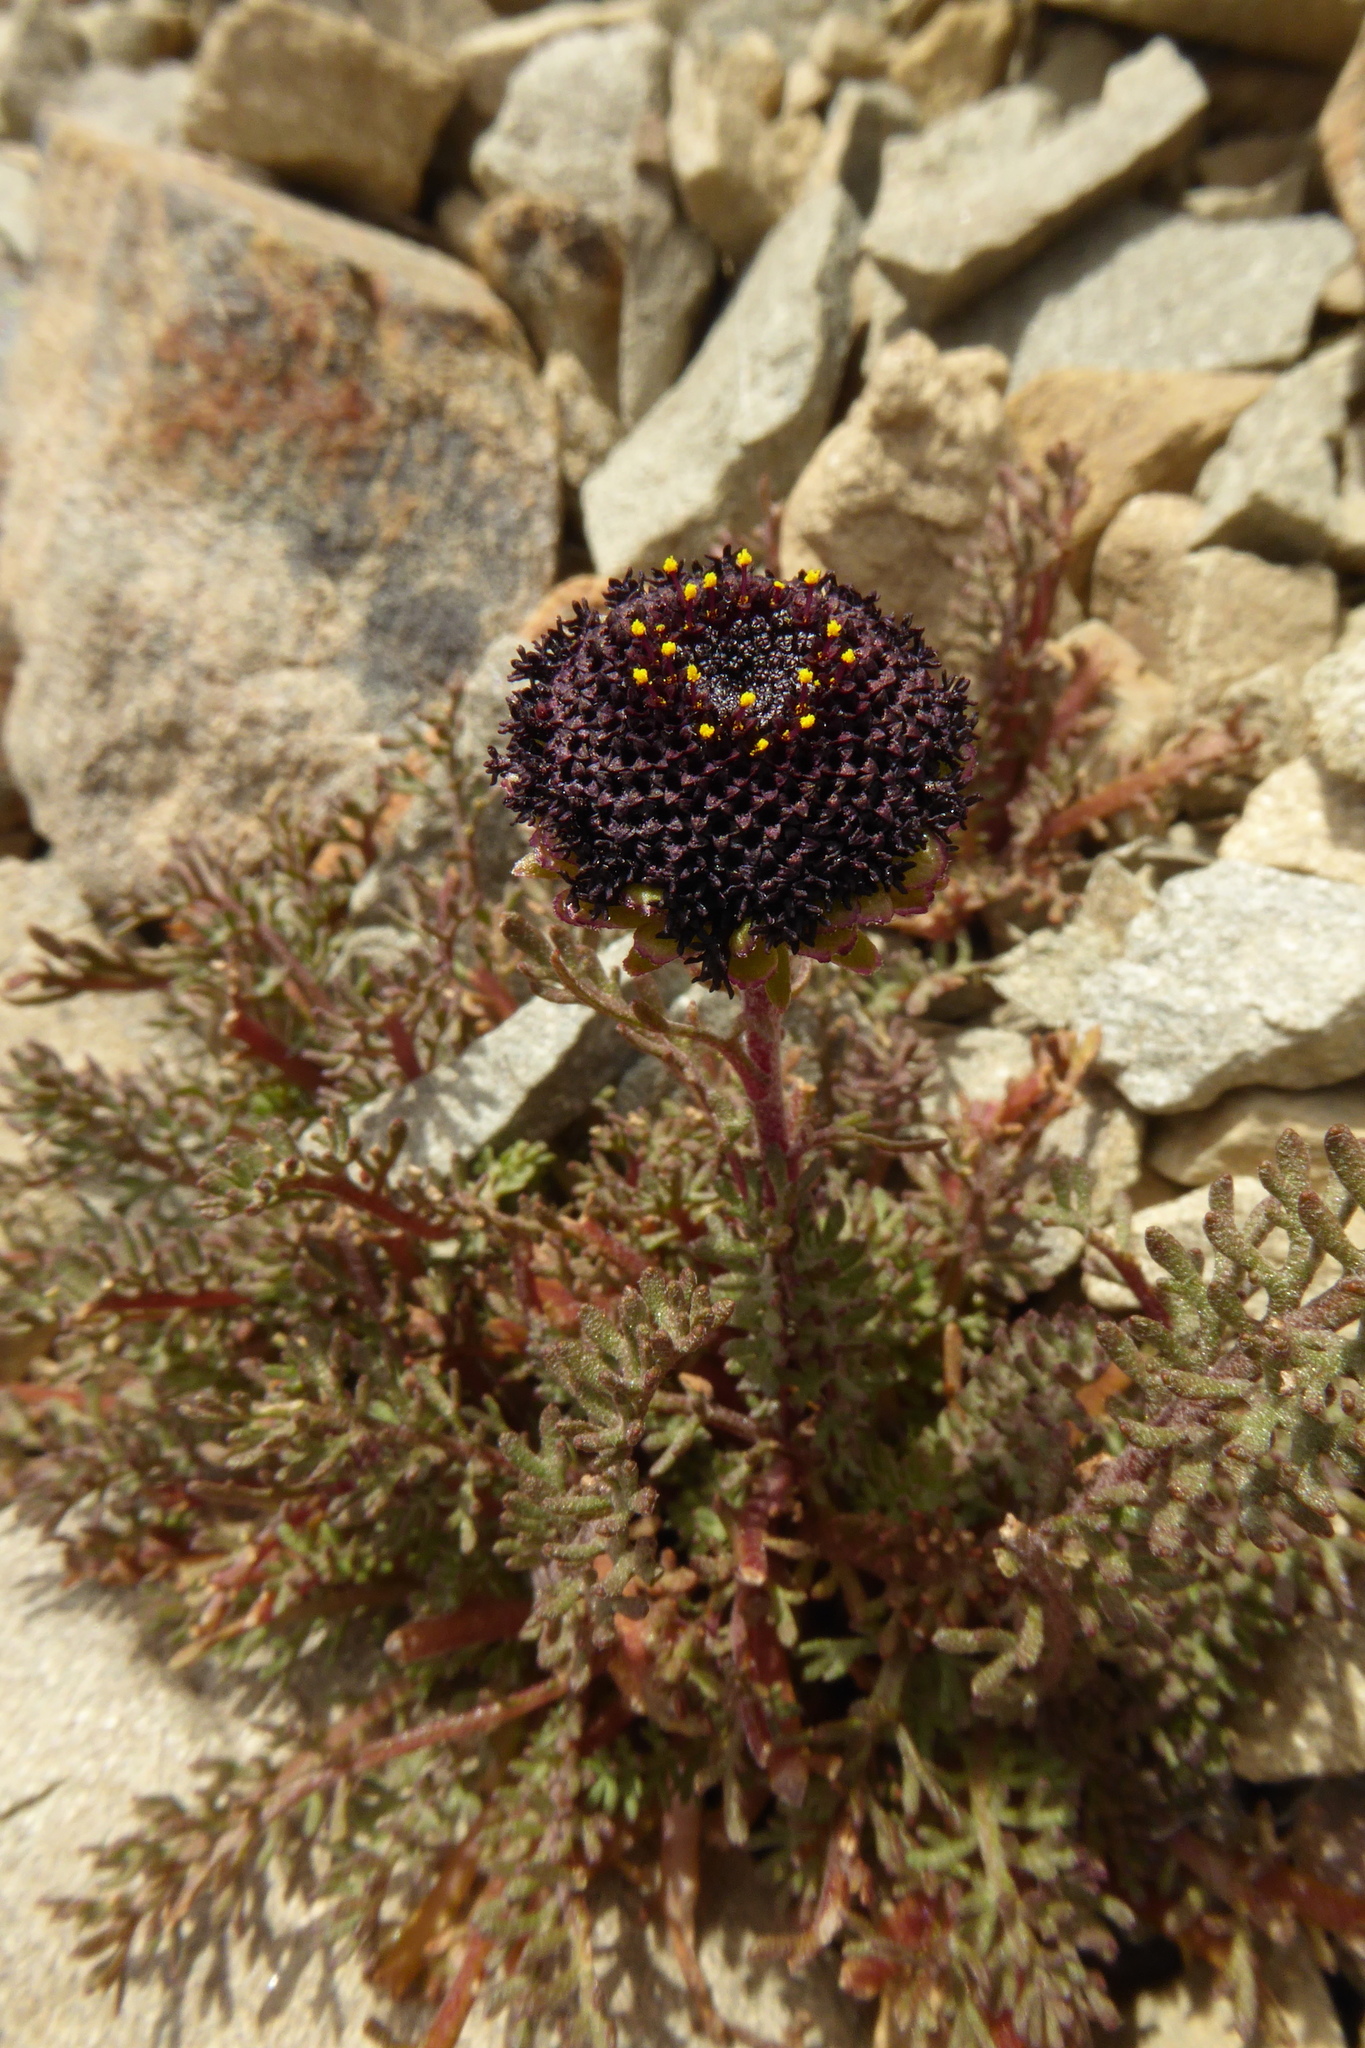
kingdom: Plantae
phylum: Tracheophyta
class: Magnoliopsida
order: Asterales
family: Asteraceae
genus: Leptinella
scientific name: Leptinella atrata
